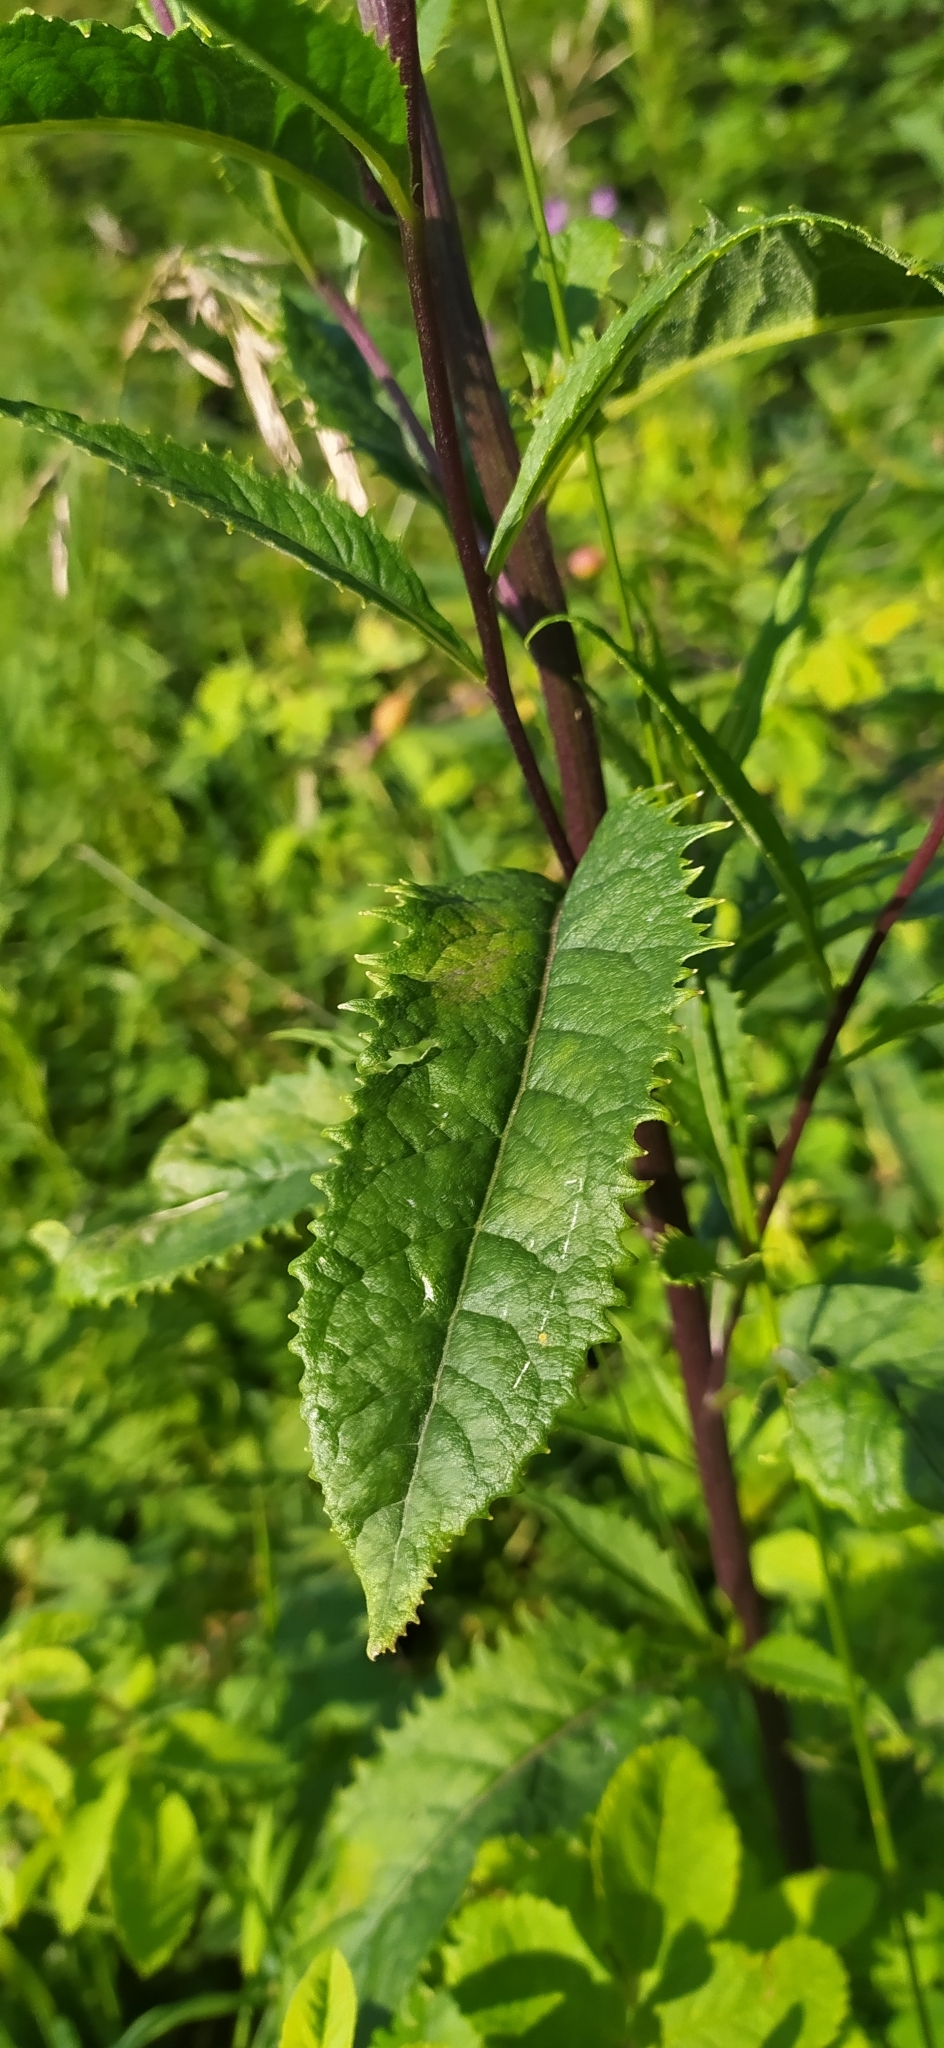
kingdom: Plantae
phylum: Tracheophyta
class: Magnoliopsida
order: Asterales
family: Asteraceae
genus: Senecio
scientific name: Senecio nemorensis
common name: Alpine ragwort
